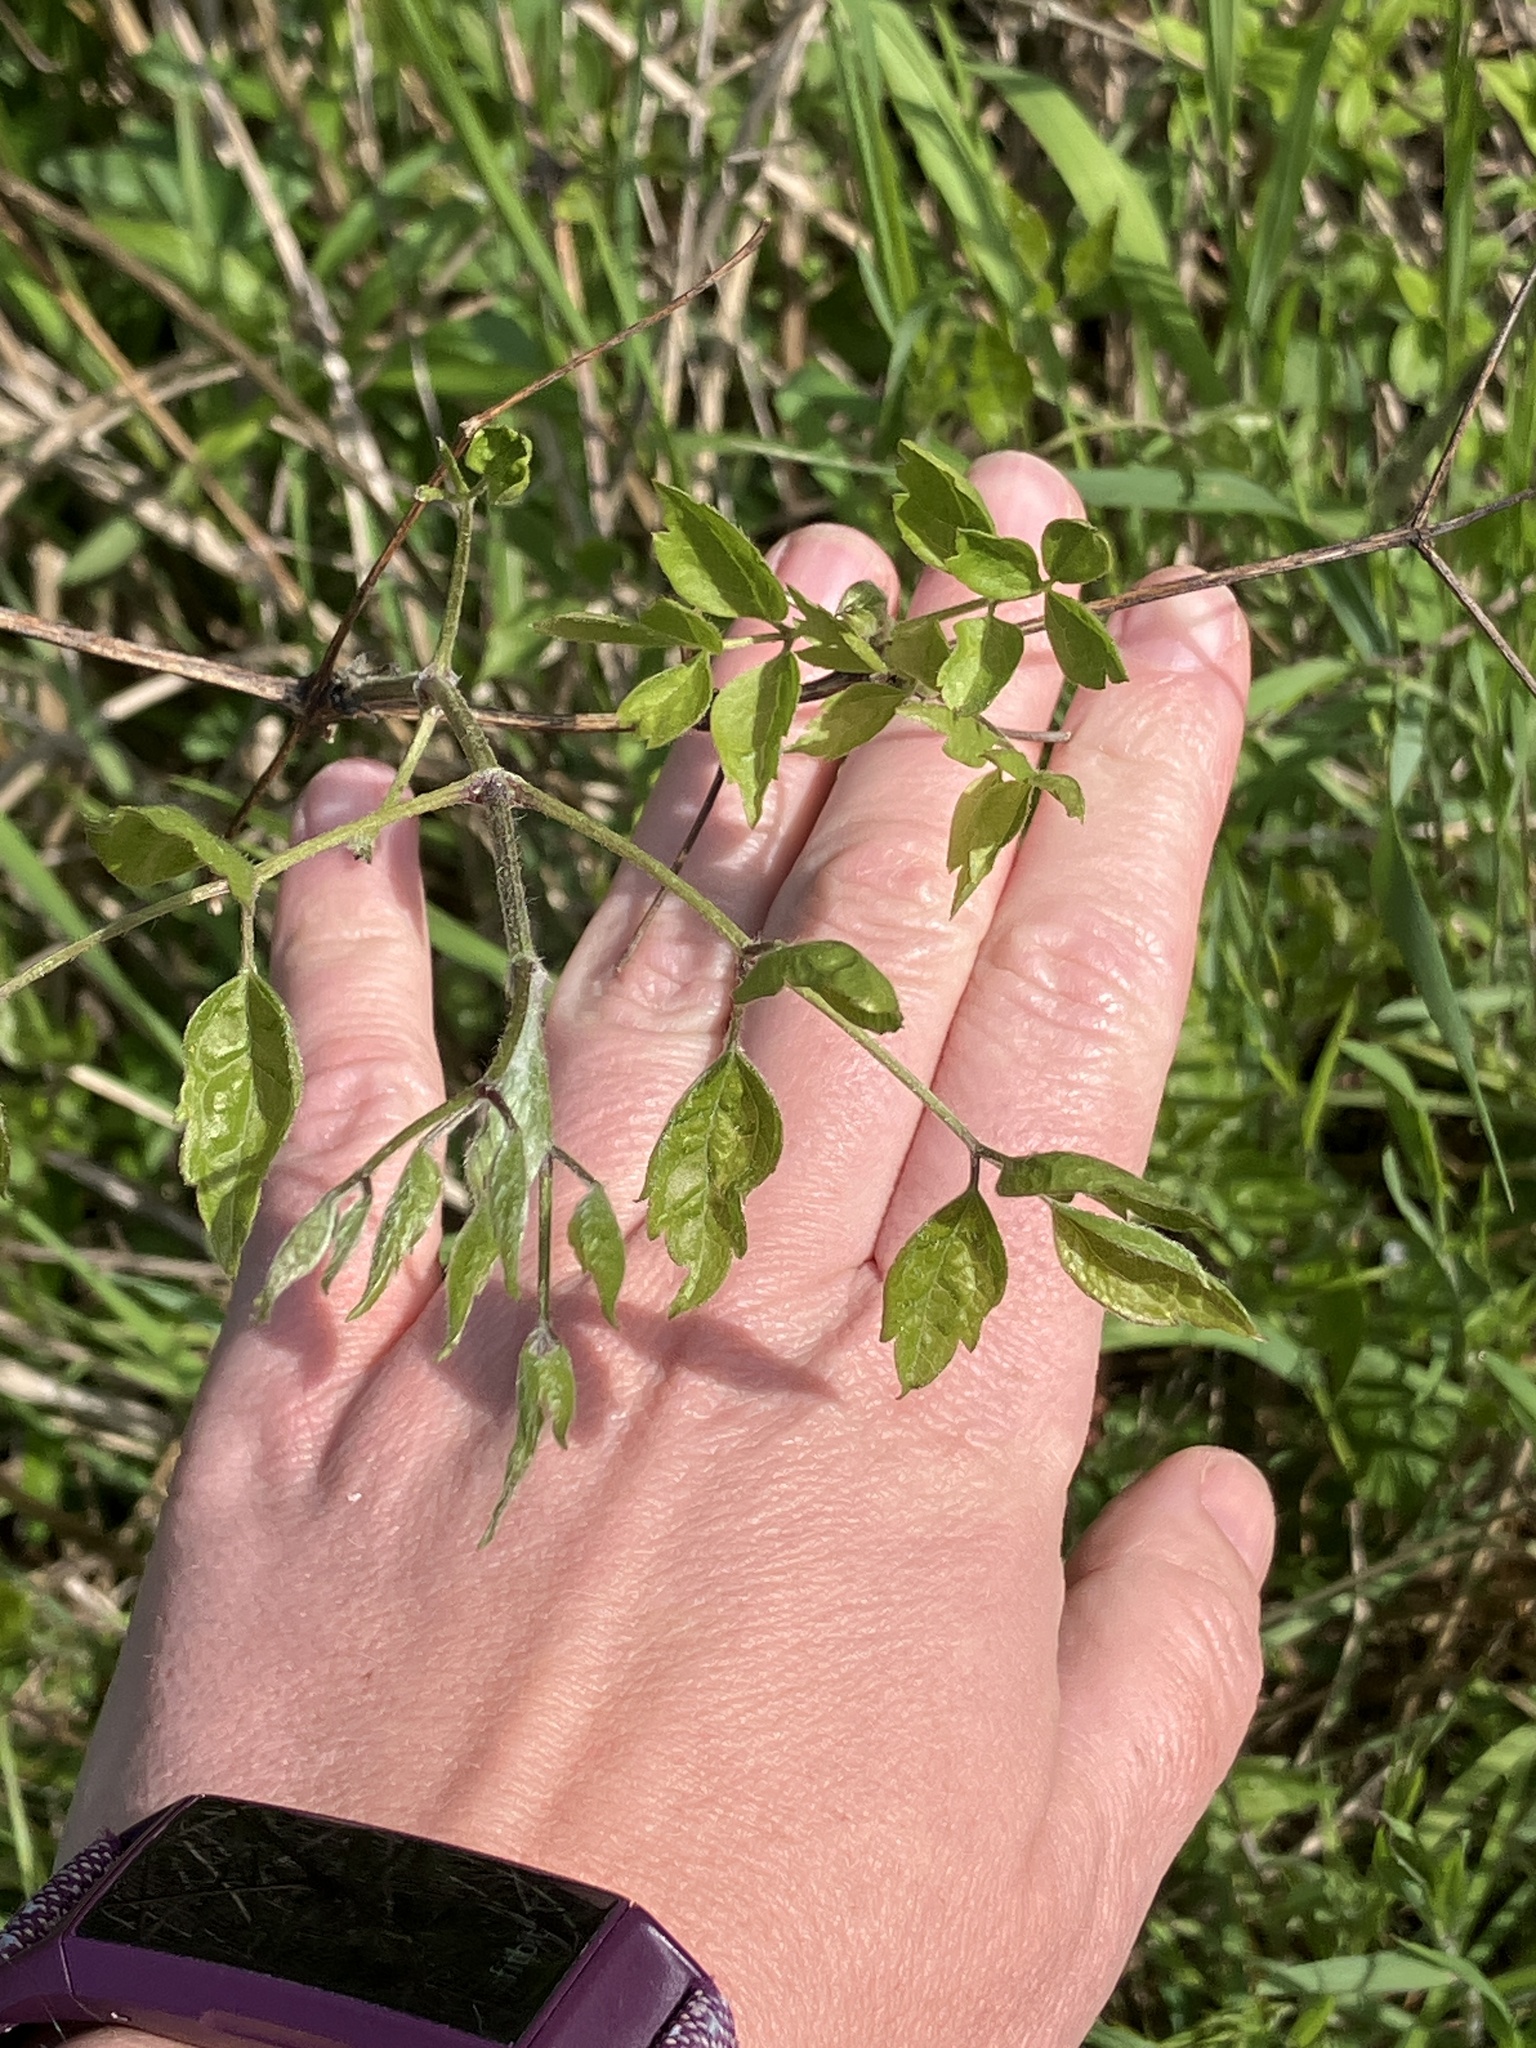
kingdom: Plantae
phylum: Tracheophyta
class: Magnoliopsida
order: Ranunculales
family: Ranunculaceae
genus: Clematis
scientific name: Clematis vitalba
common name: Evergreen clematis
